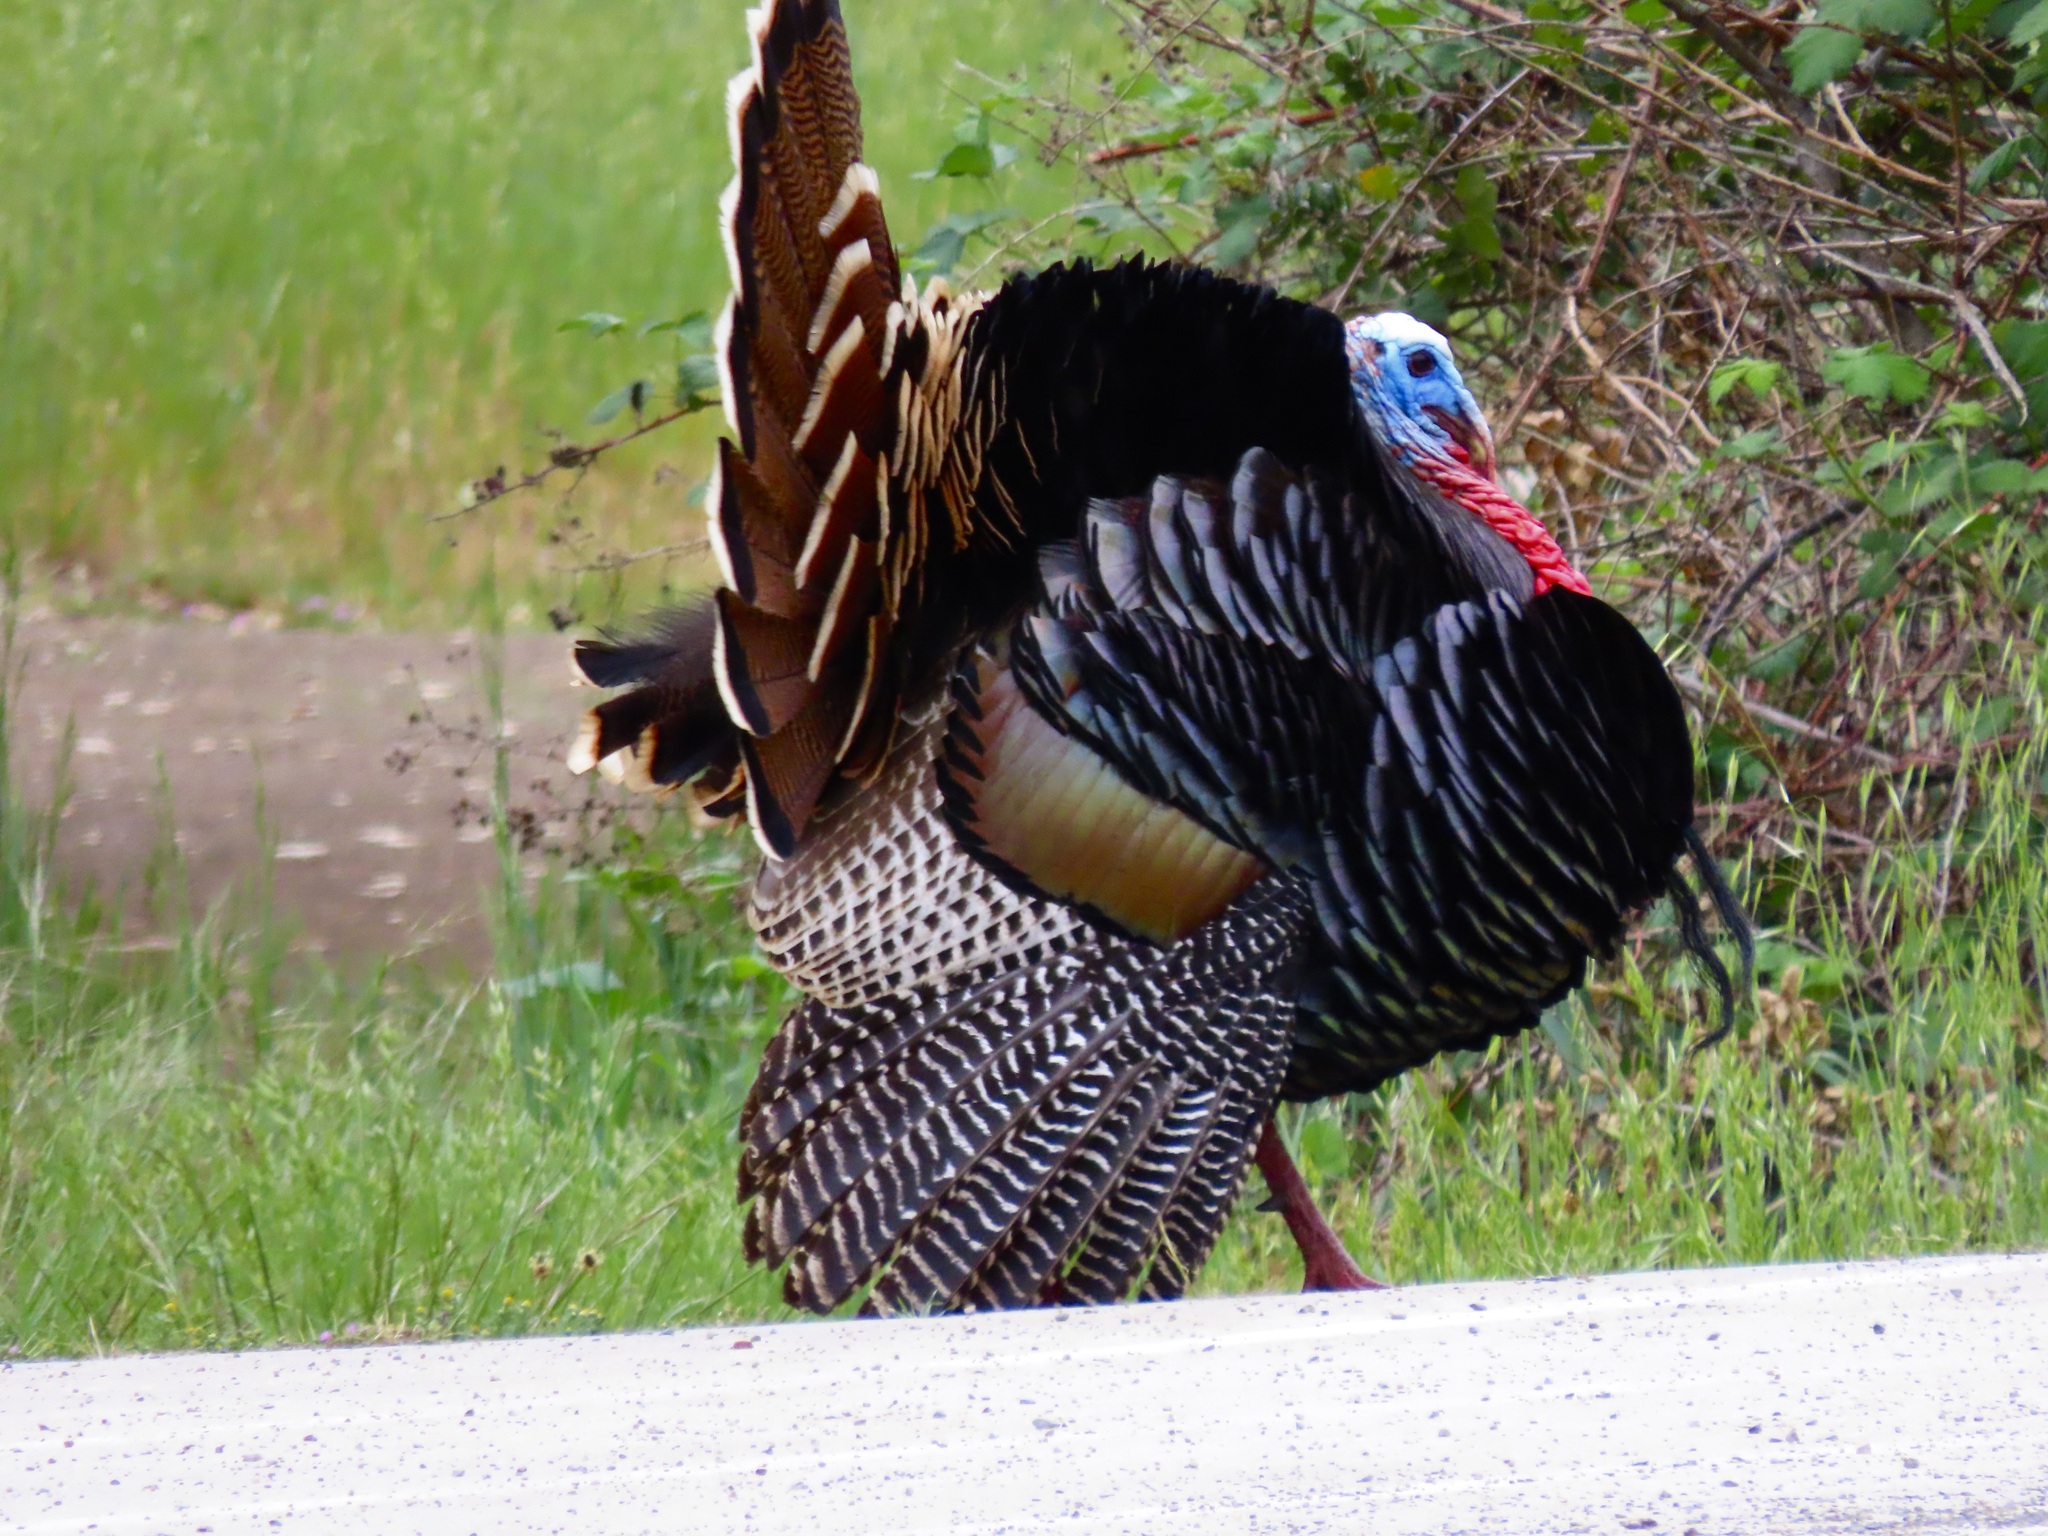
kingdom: Animalia
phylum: Chordata
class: Aves
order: Galliformes
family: Phasianidae
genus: Meleagris
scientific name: Meleagris gallopavo
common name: Wild turkey
